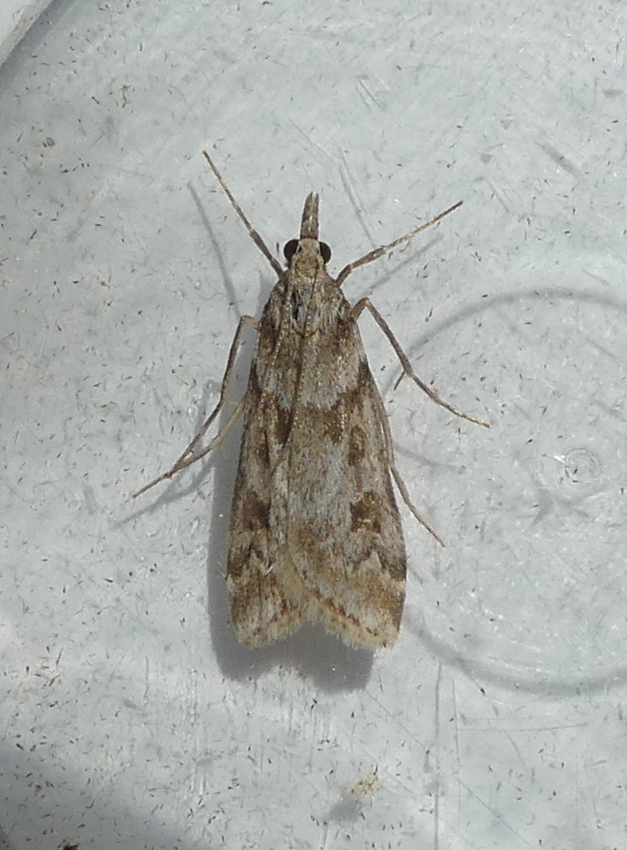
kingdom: Animalia
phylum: Arthropoda
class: Insecta
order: Lepidoptera
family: Crambidae
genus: Eudonia
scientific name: Eudonia angustea
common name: Narrow-winged grey
